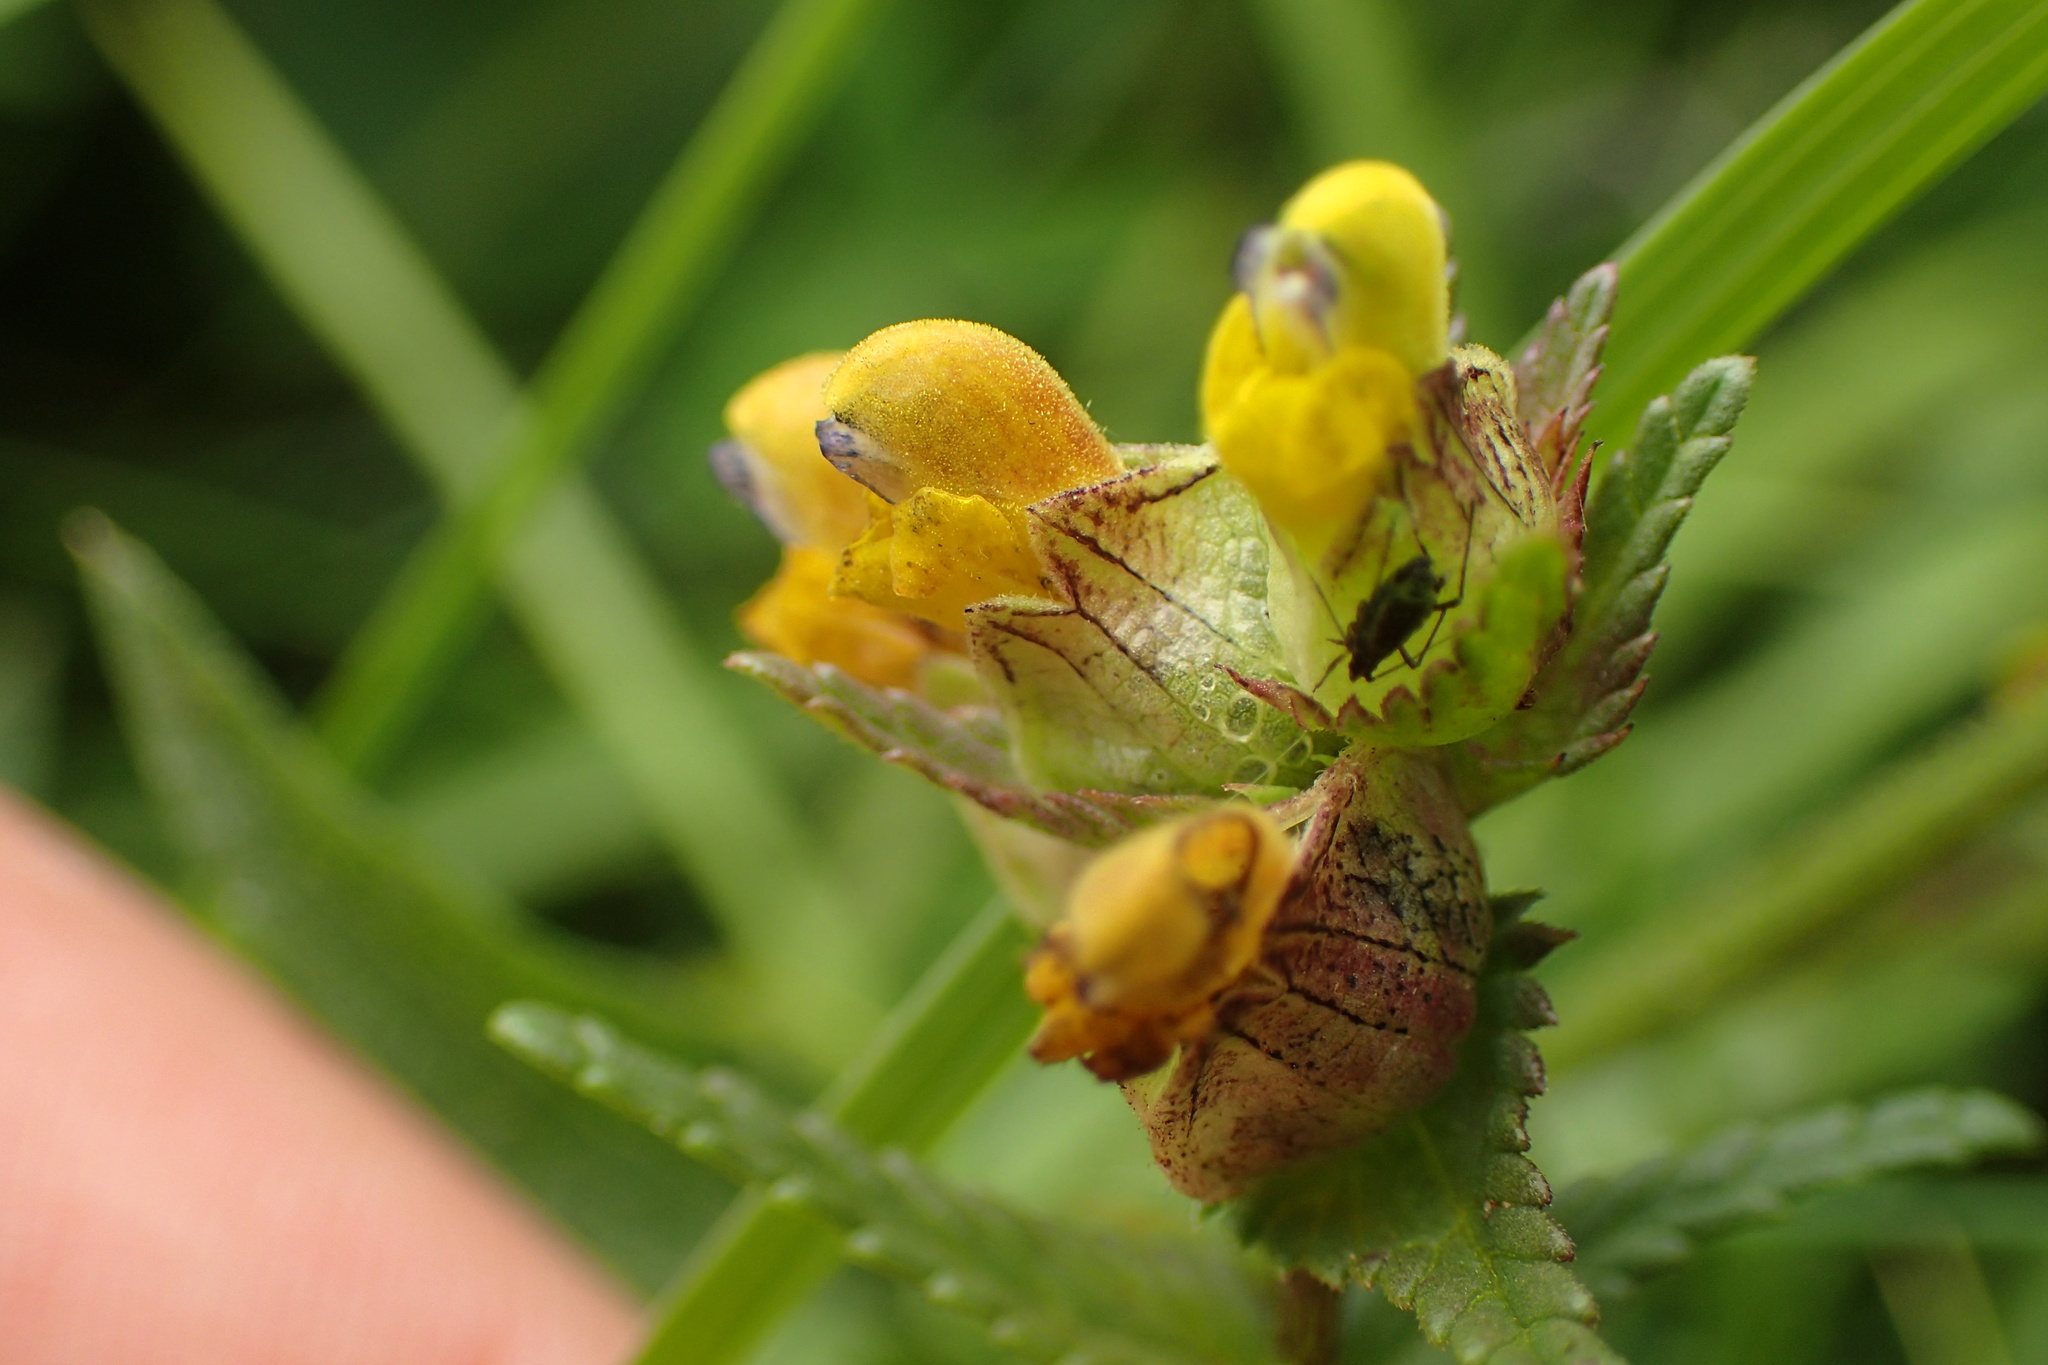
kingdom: Plantae
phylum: Tracheophyta
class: Magnoliopsida
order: Lamiales
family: Orobanchaceae
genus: Rhinanthus
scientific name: Rhinanthus minor
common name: Yellow-rattle
